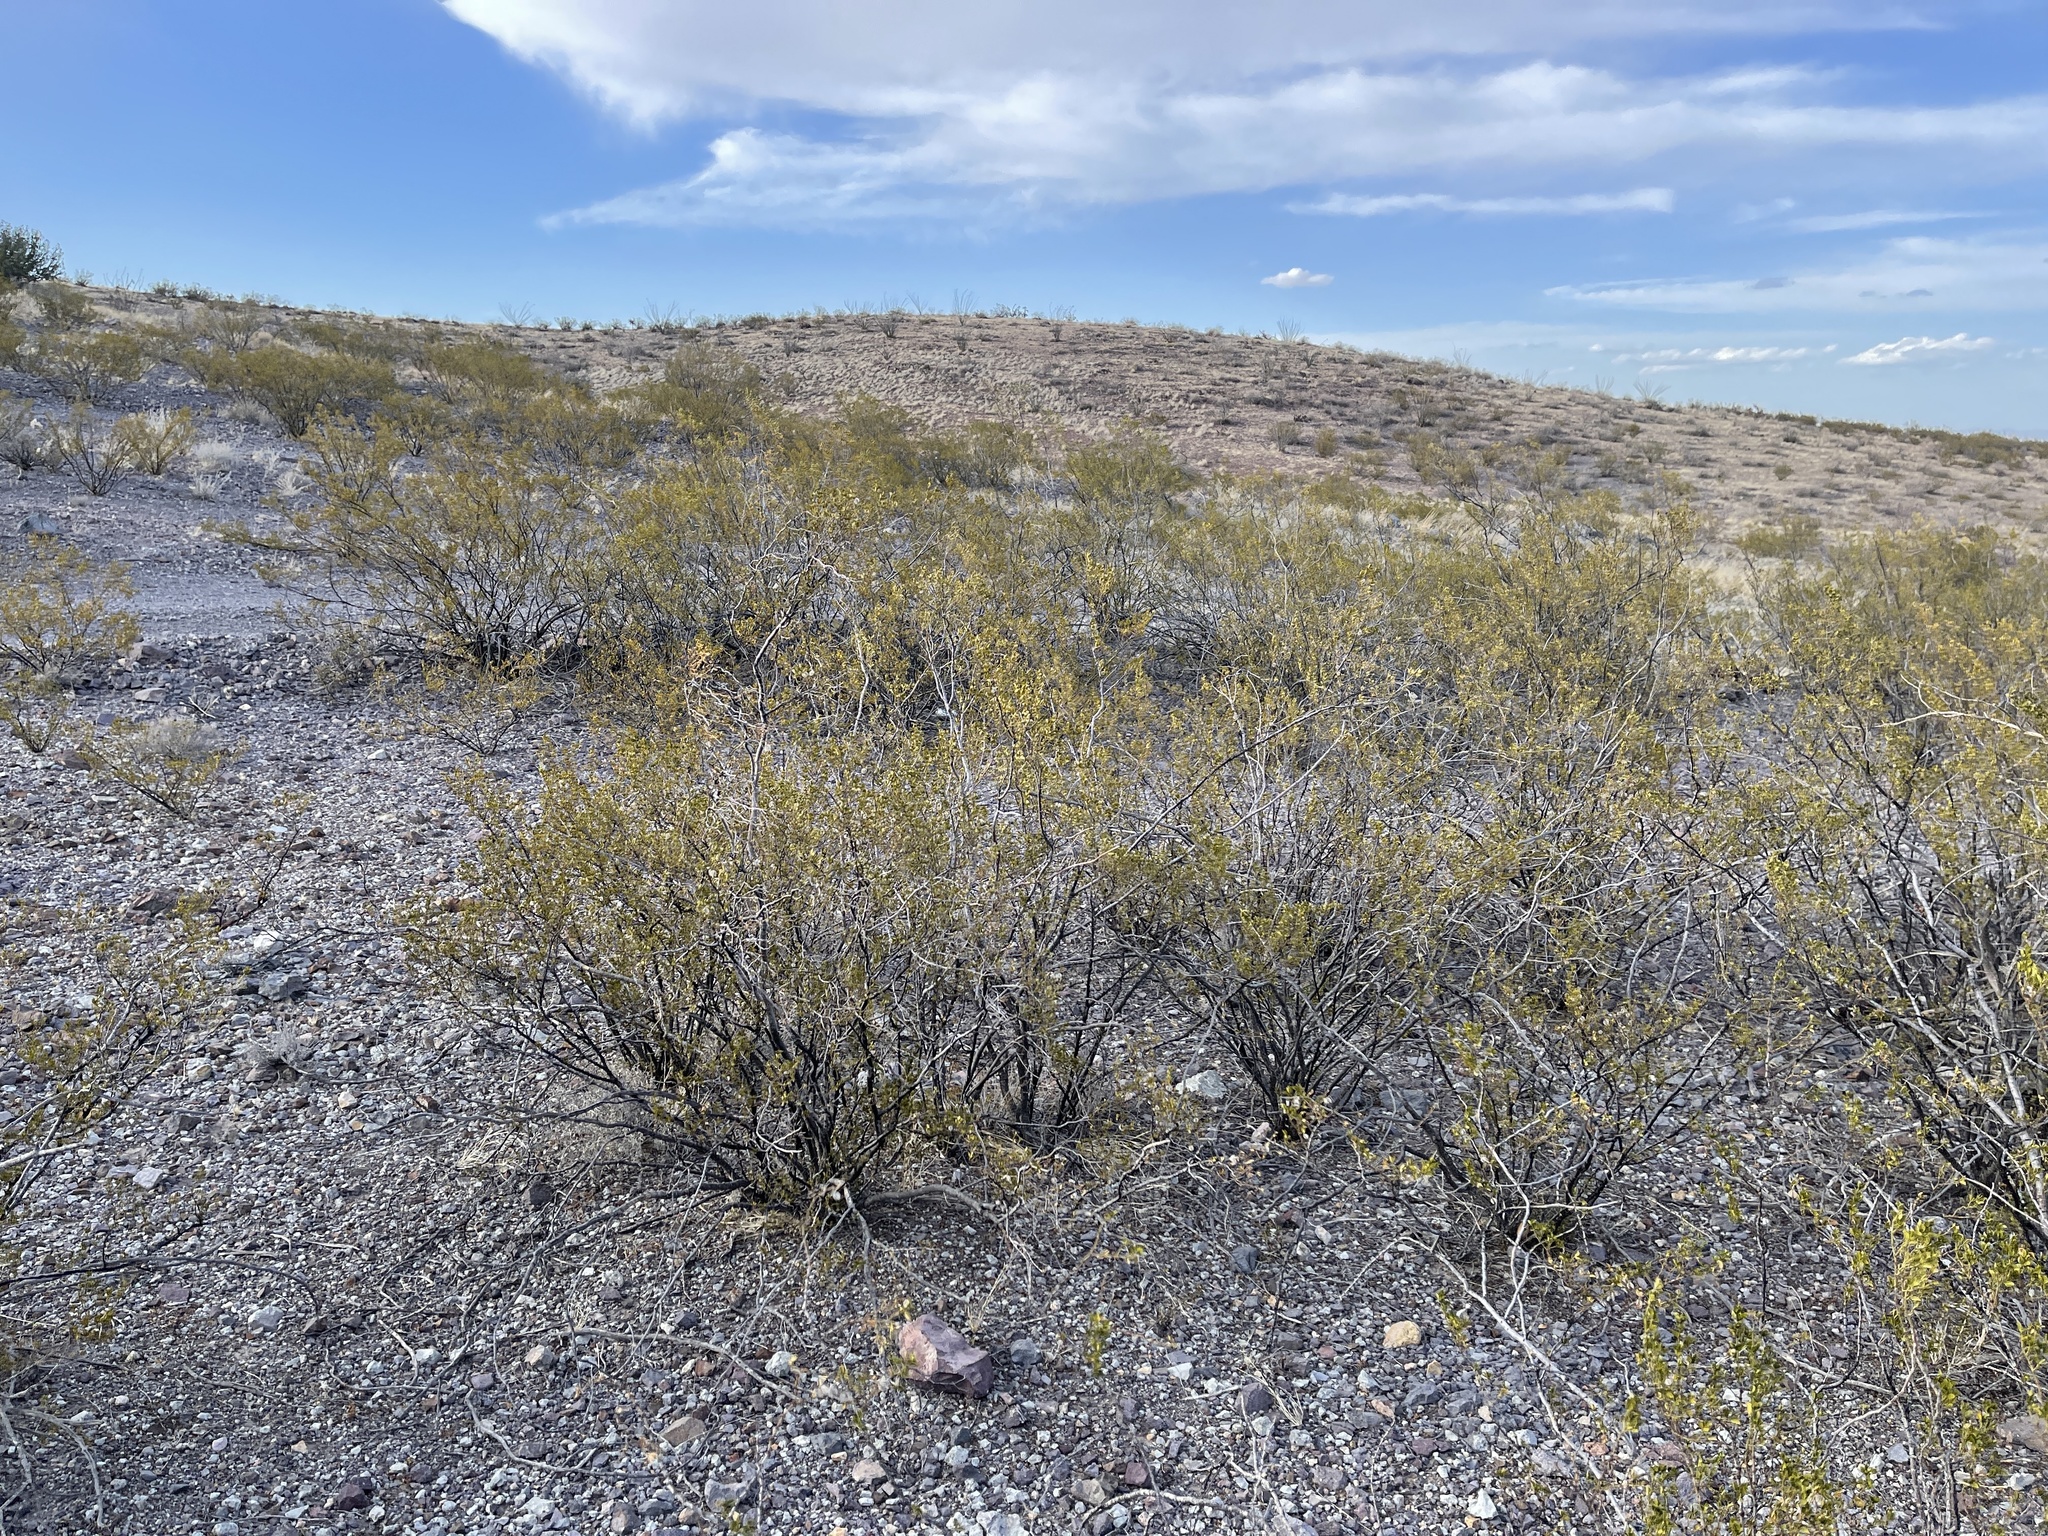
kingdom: Plantae
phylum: Tracheophyta
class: Magnoliopsida
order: Zygophyllales
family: Zygophyllaceae
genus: Larrea
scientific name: Larrea tridentata
